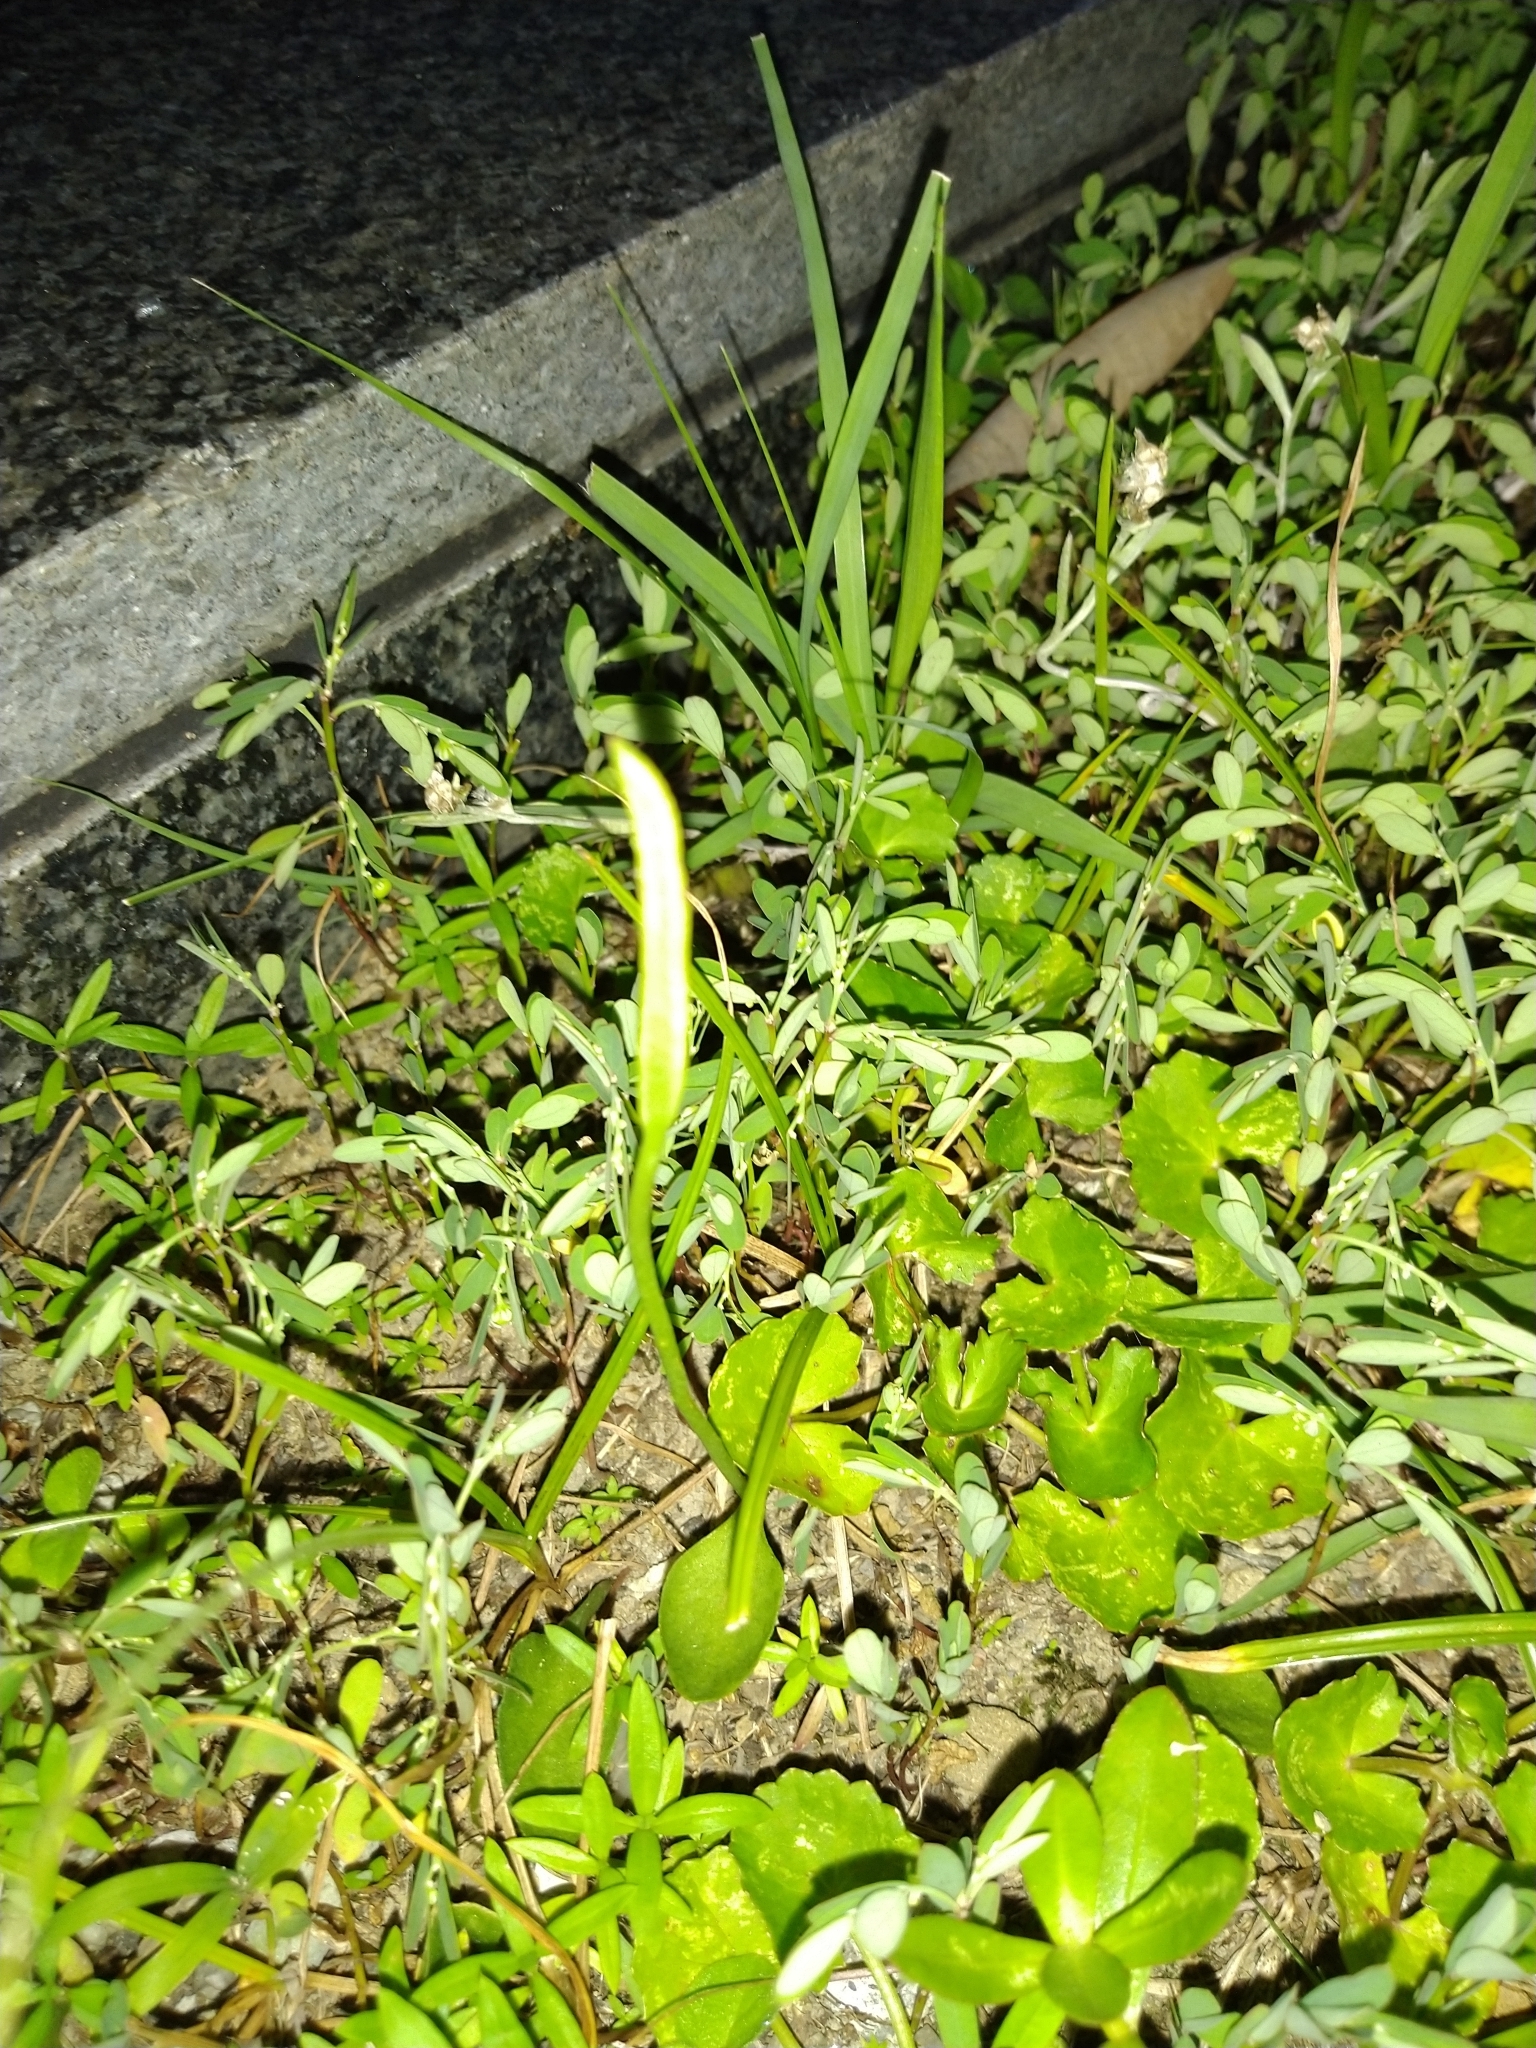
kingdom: Plantae
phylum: Tracheophyta
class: Polypodiopsida
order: Ophioglossales
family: Ophioglossaceae
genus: Ophioglossum
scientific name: Ophioglossum vulgatum
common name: Adder's-tongue
